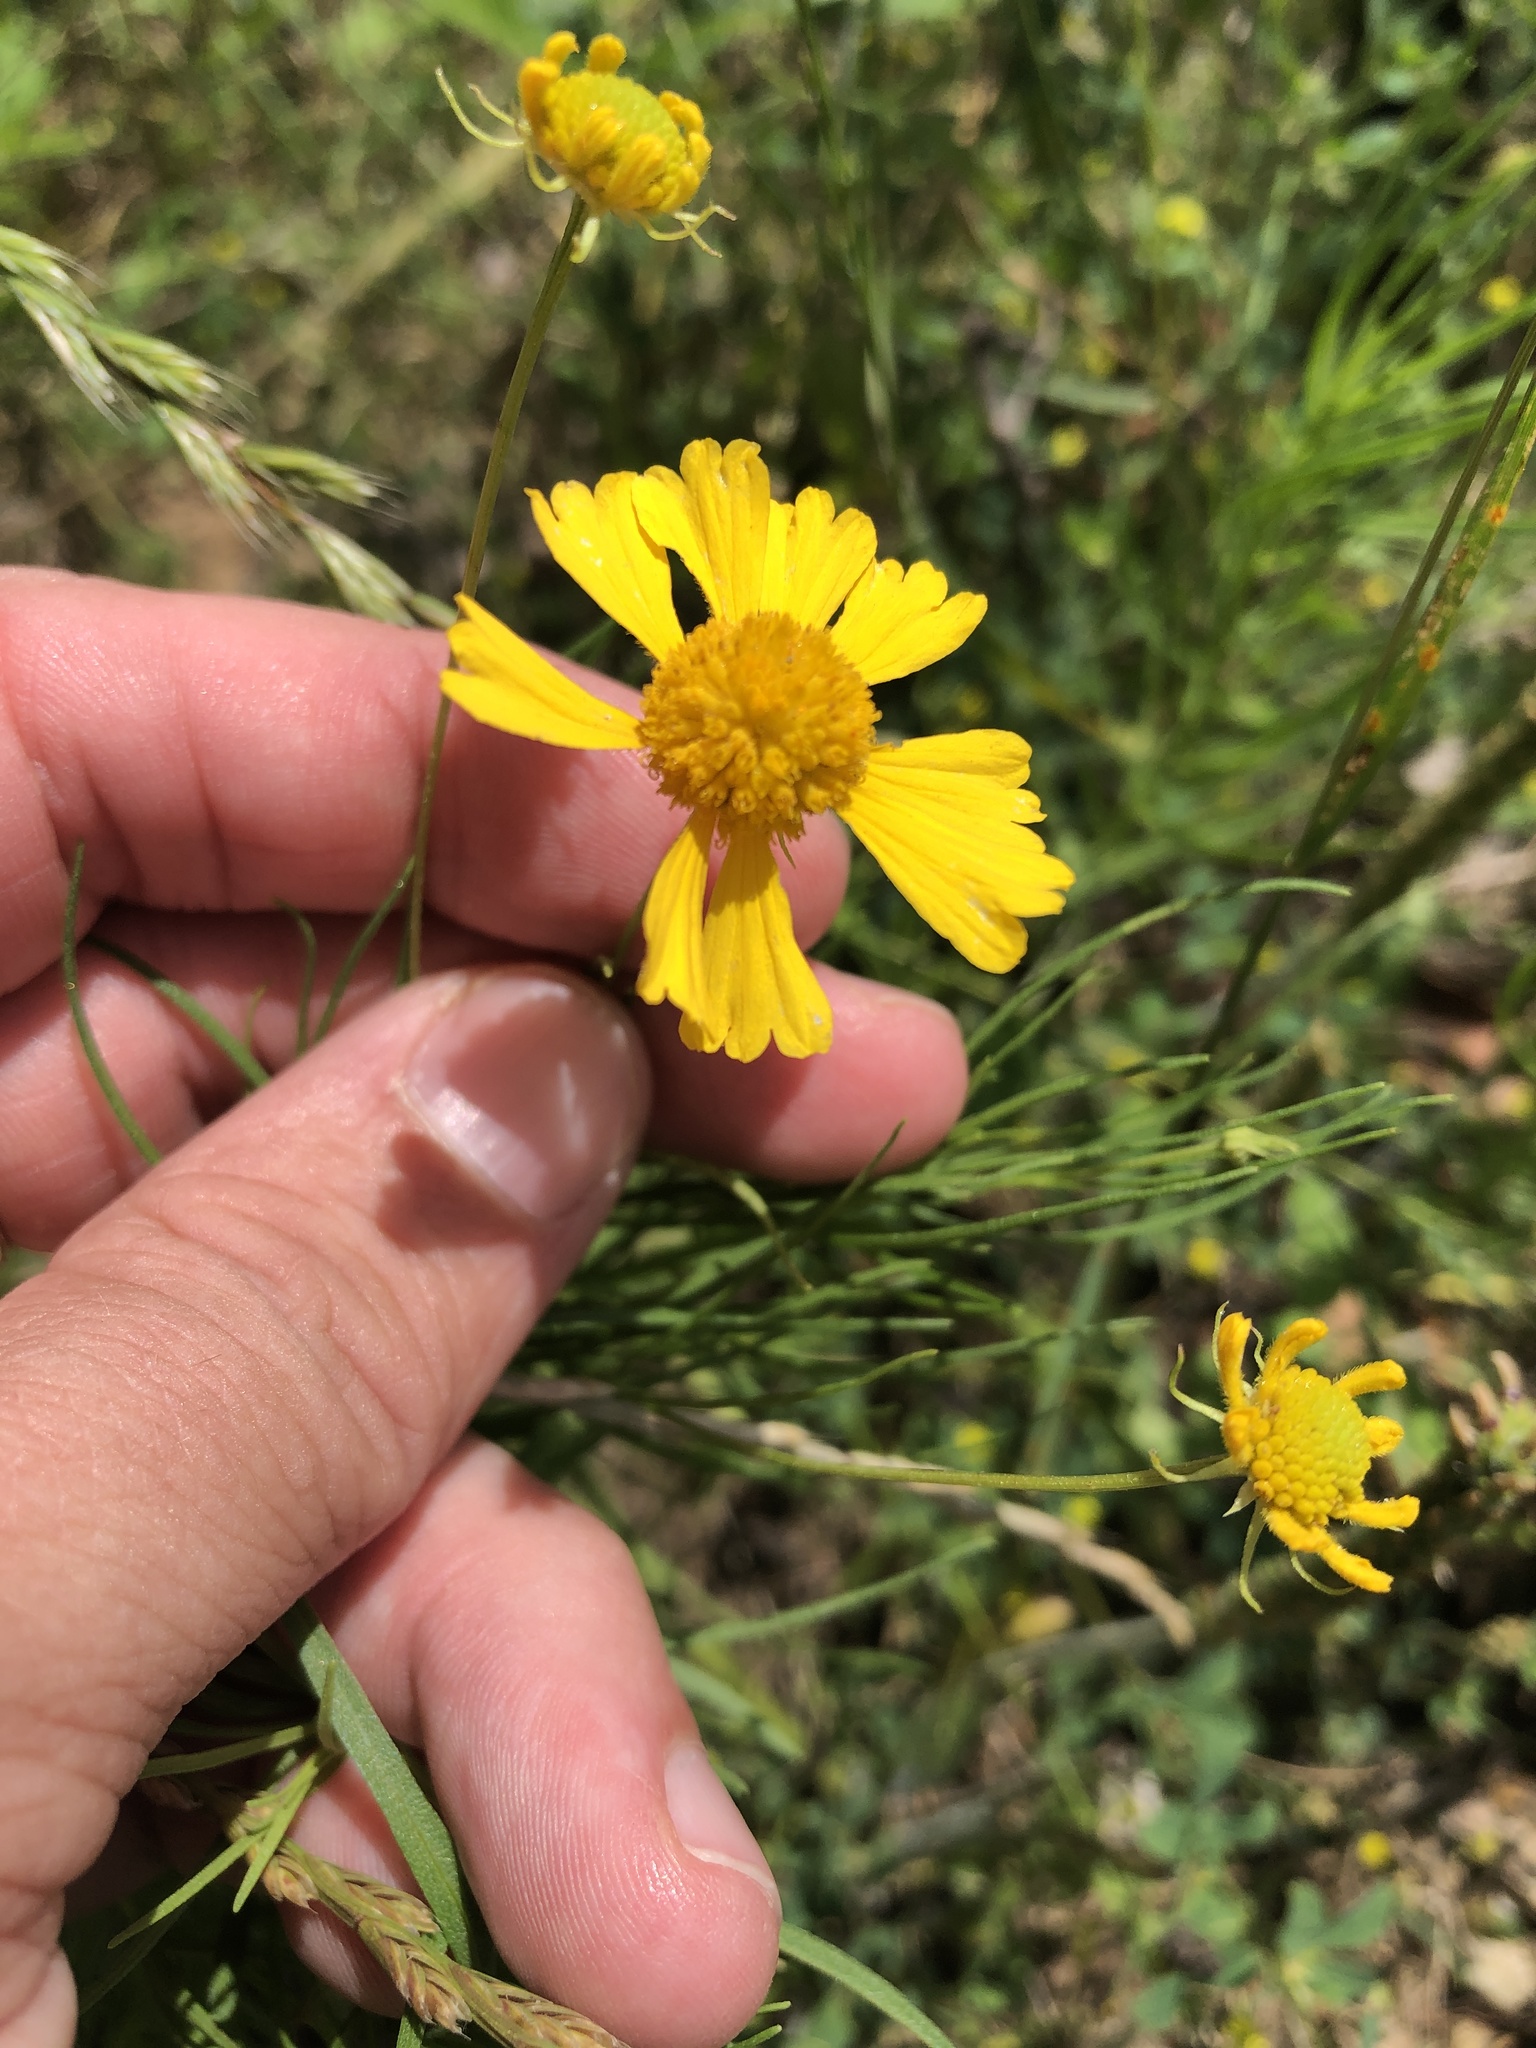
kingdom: Plantae
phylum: Tracheophyta
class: Magnoliopsida
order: Asterales
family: Asteraceae
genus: Helenium
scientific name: Helenium amarum
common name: Bitter sneezeweed
